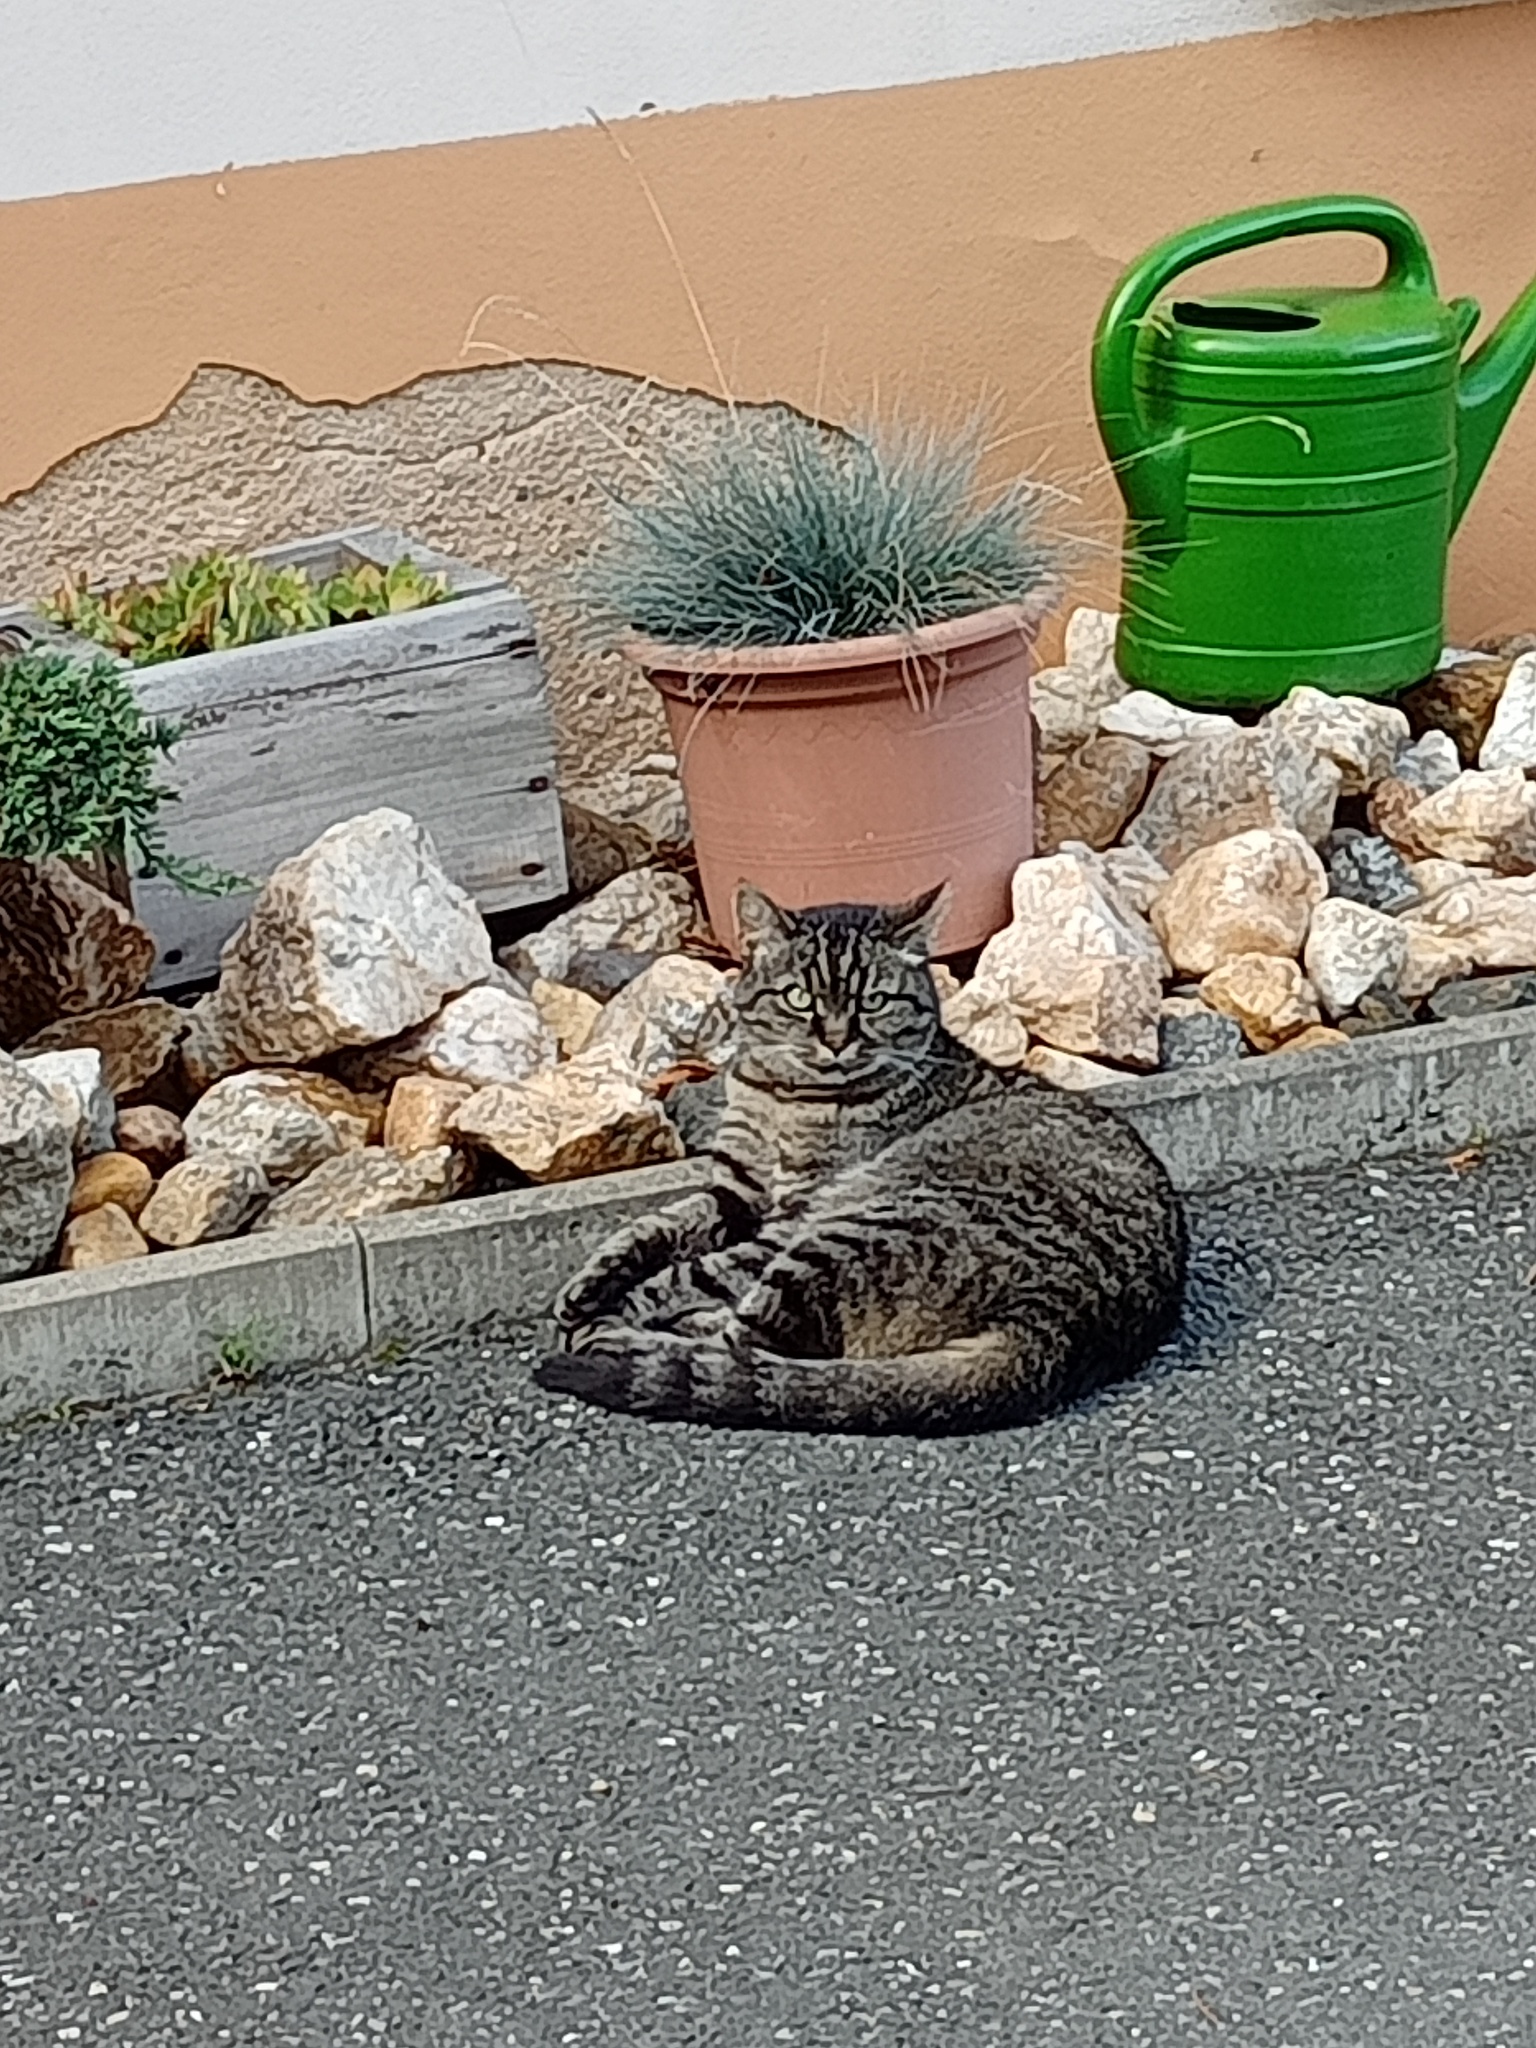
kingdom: Animalia
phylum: Chordata
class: Mammalia
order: Carnivora
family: Felidae
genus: Felis
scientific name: Felis catus
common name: Domestic cat
